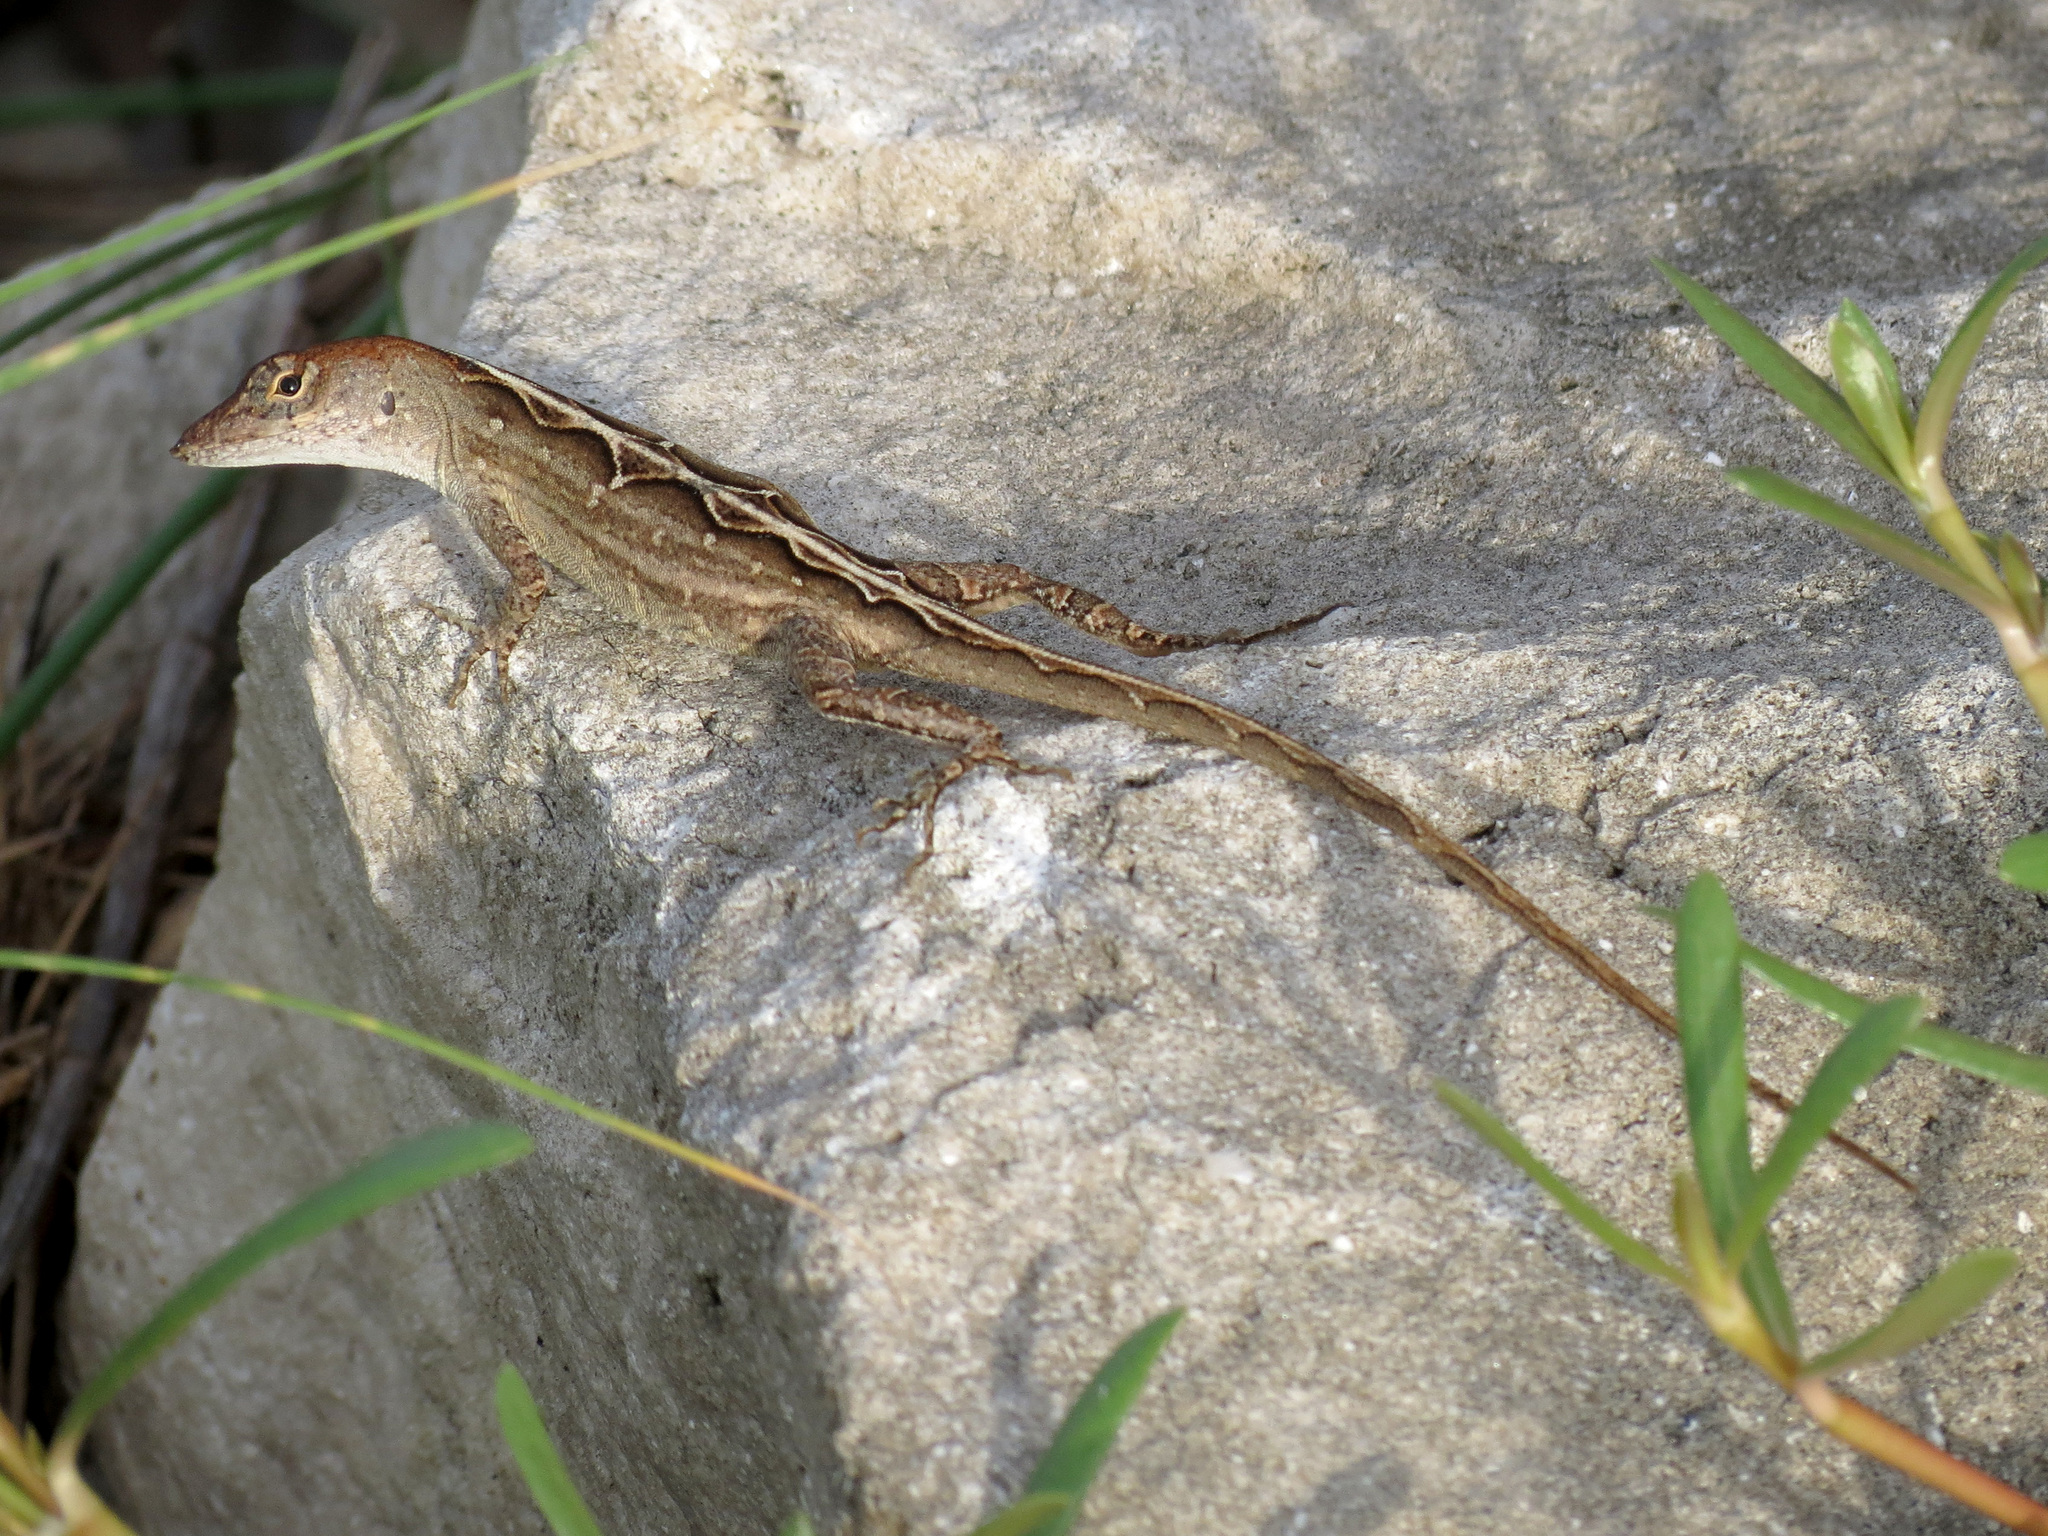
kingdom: Animalia
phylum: Chordata
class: Squamata
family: Dactyloidae
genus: Anolis
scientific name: Anolis sagrei
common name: Brown anole
